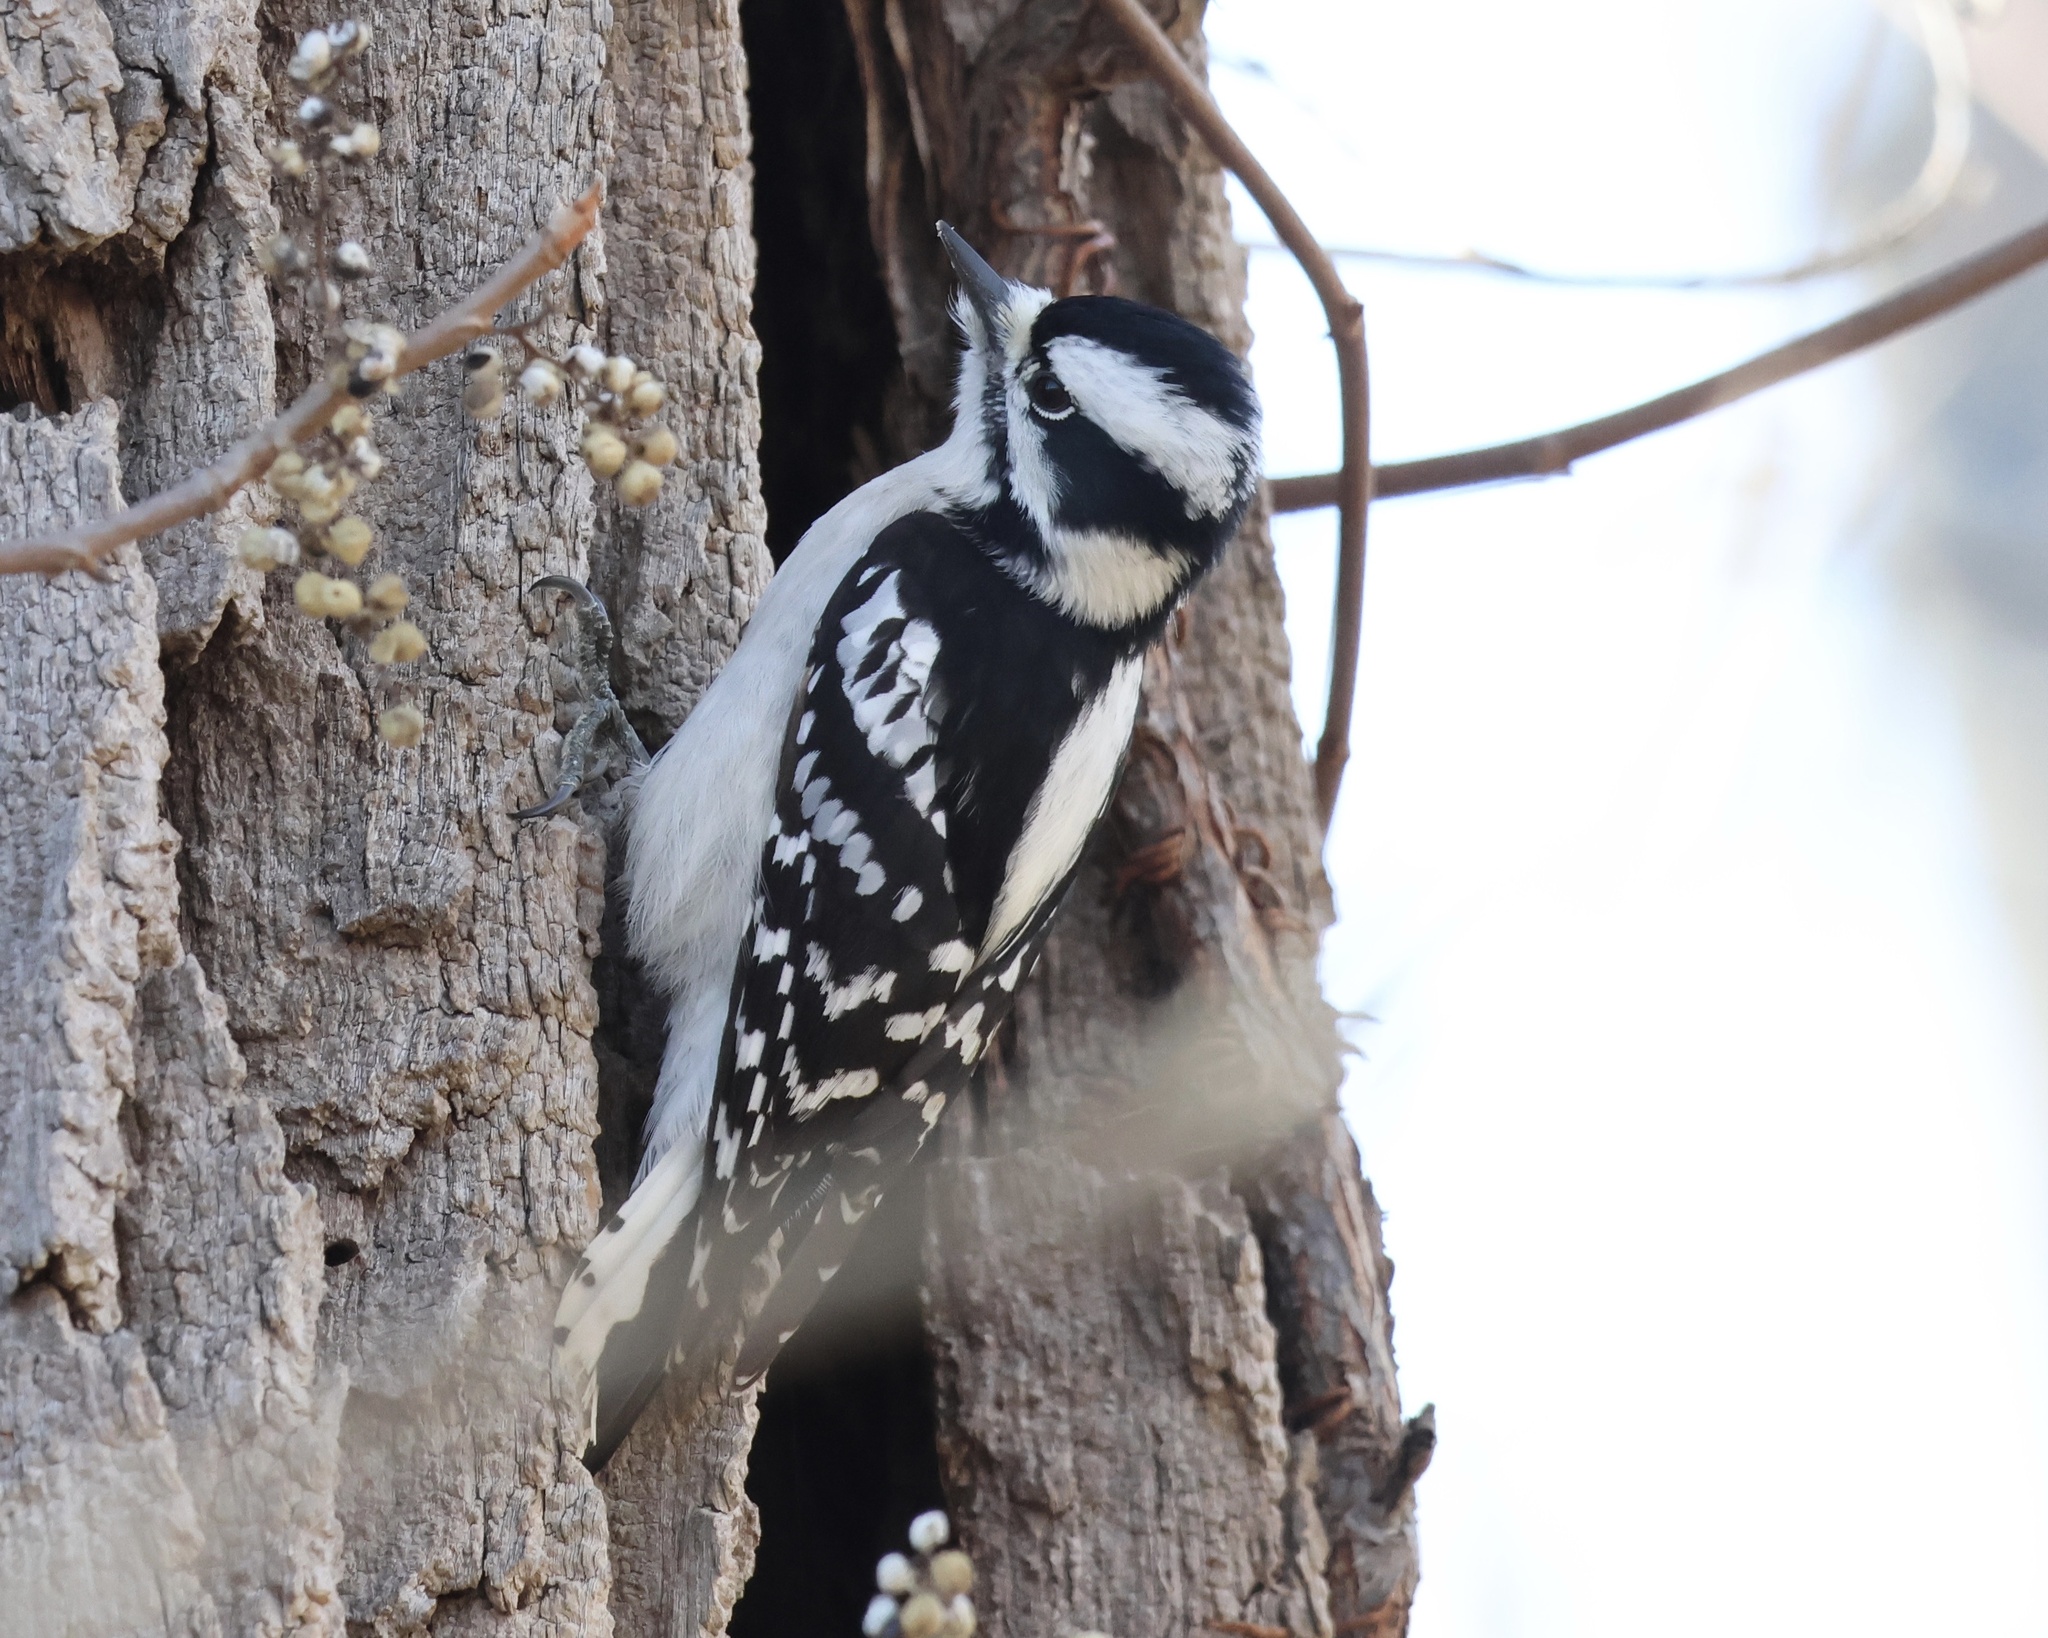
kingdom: Animalia
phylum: Chordata
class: Aves
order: Piciformes
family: Picidae
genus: Dryobates
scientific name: Dryobates pubescens
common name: Downy woodpecker
